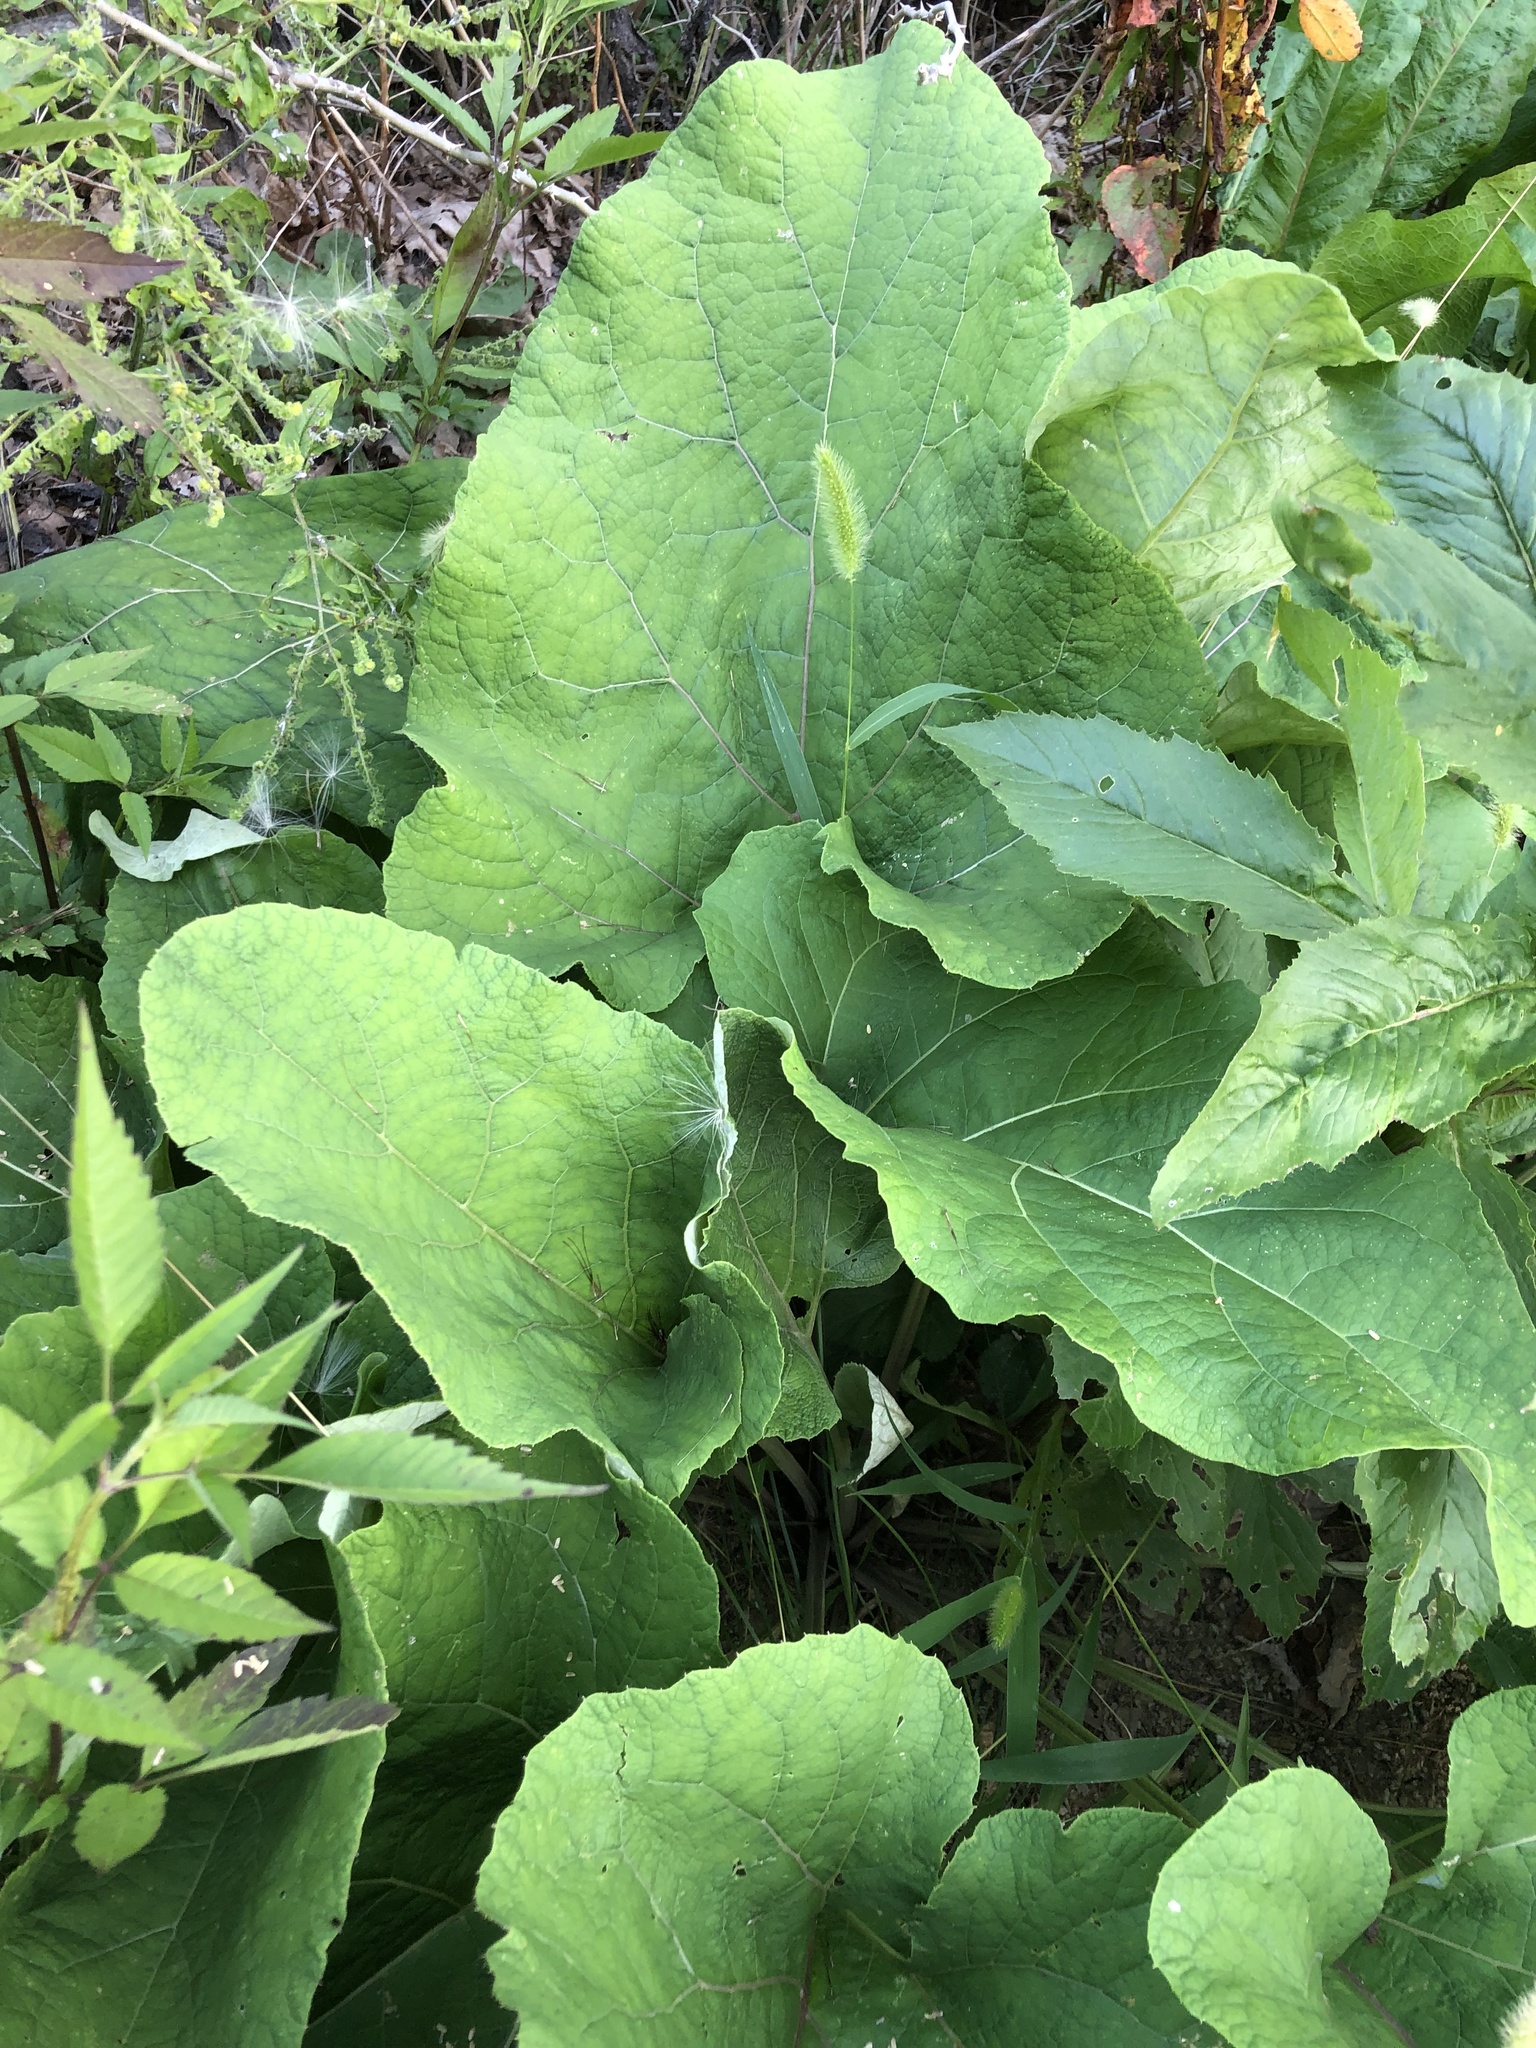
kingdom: Plantae
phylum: Tracheophyta
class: Magnoliopsida
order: Asterales
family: Asteraceae
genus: Arctium
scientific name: Arctium
